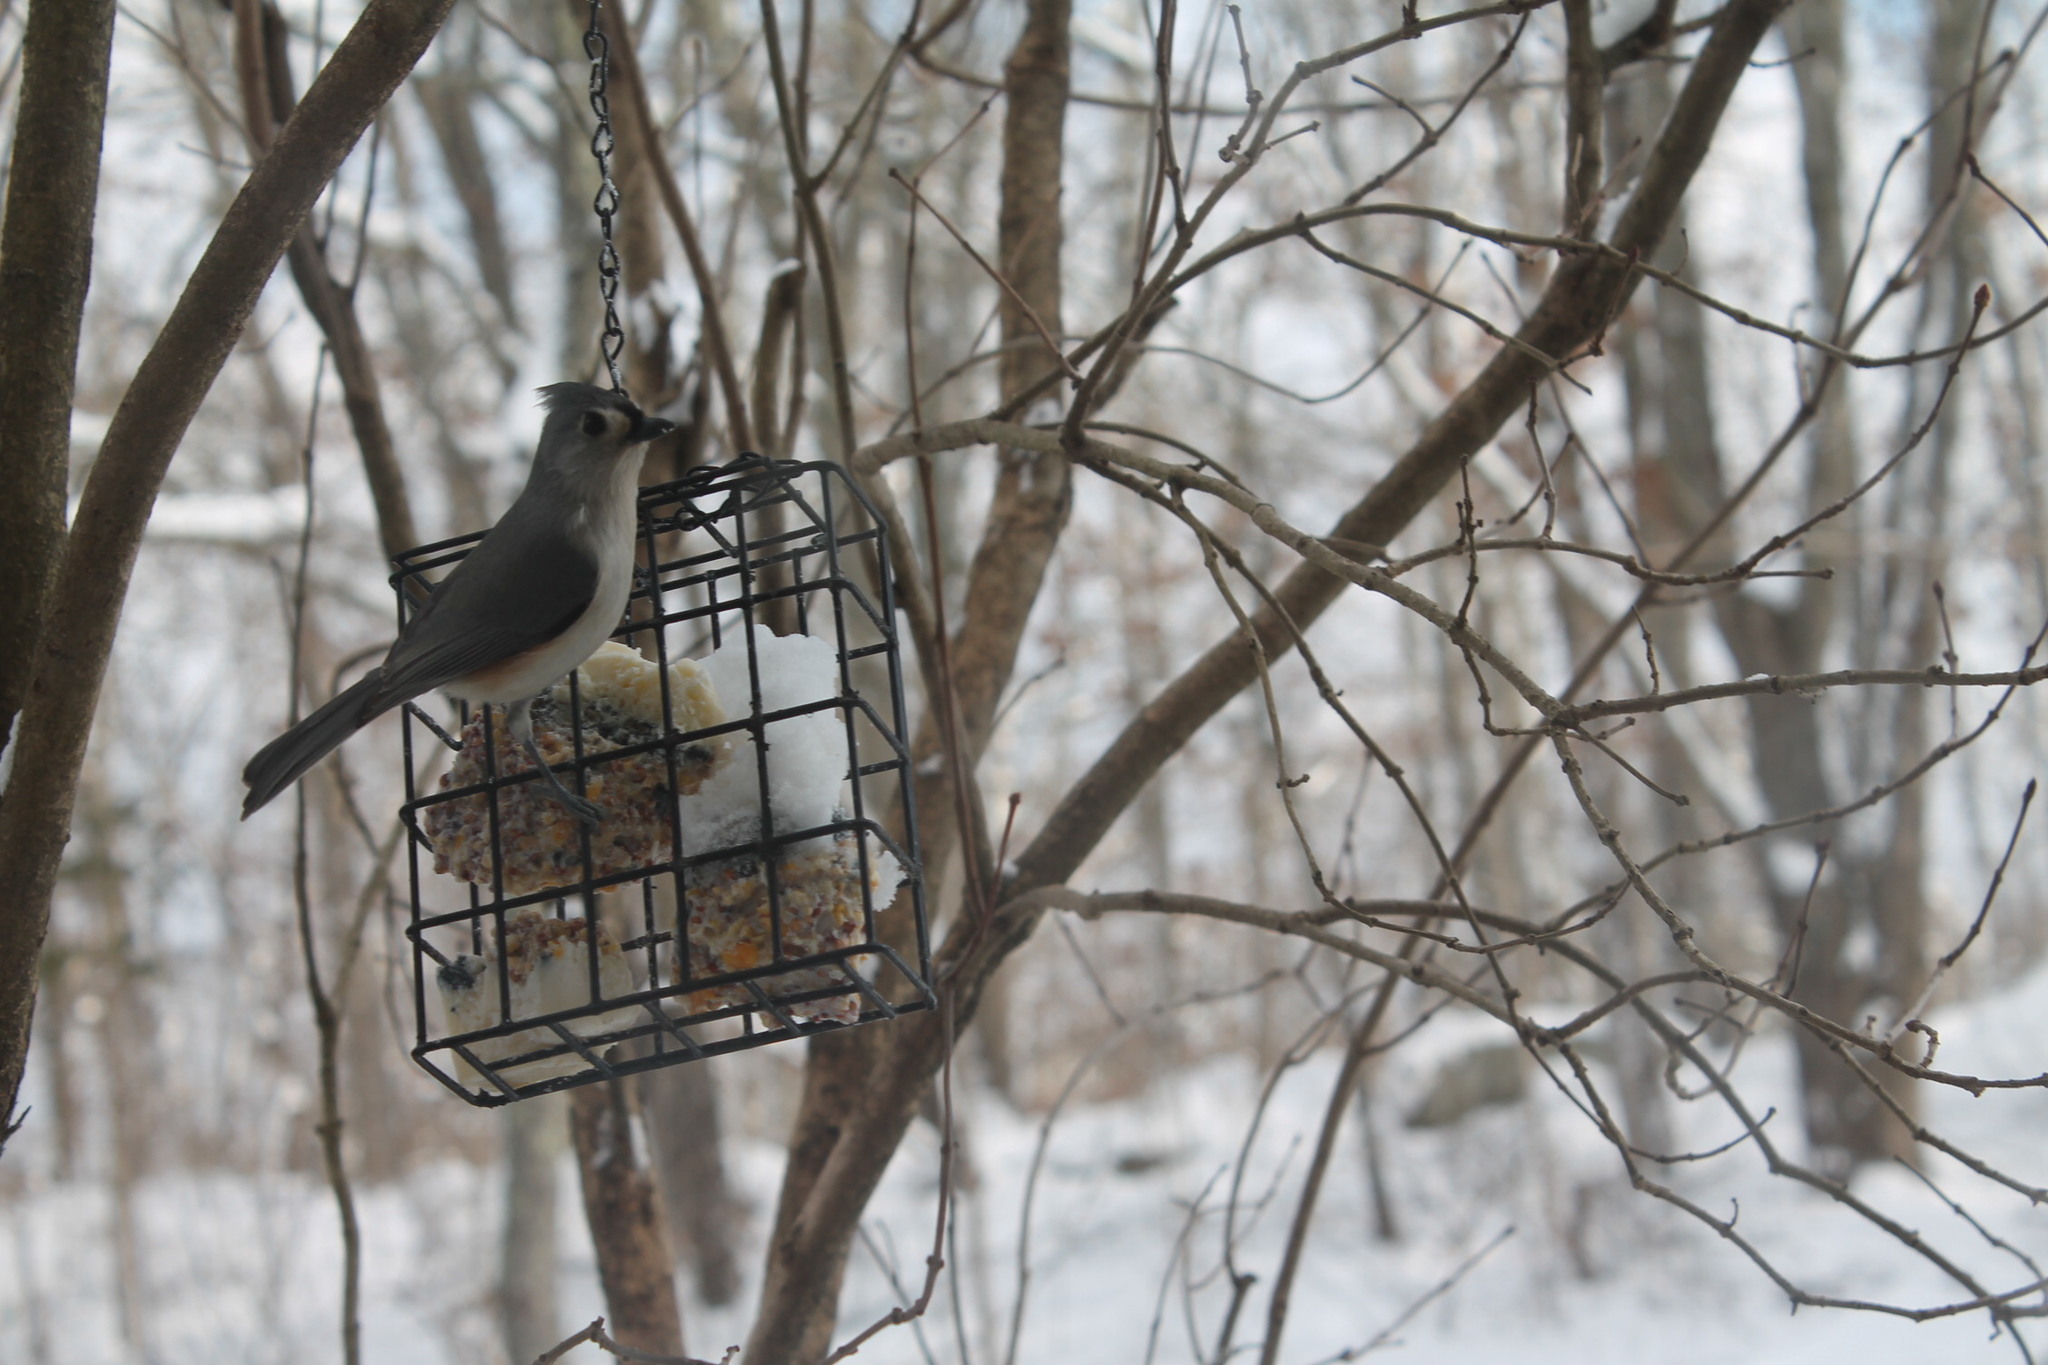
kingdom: Animalia
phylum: Chordata
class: Aves
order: Passeriformes
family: Paridae
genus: Baeolophus
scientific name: Baeolophus bicolor
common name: Tufted titmouse
